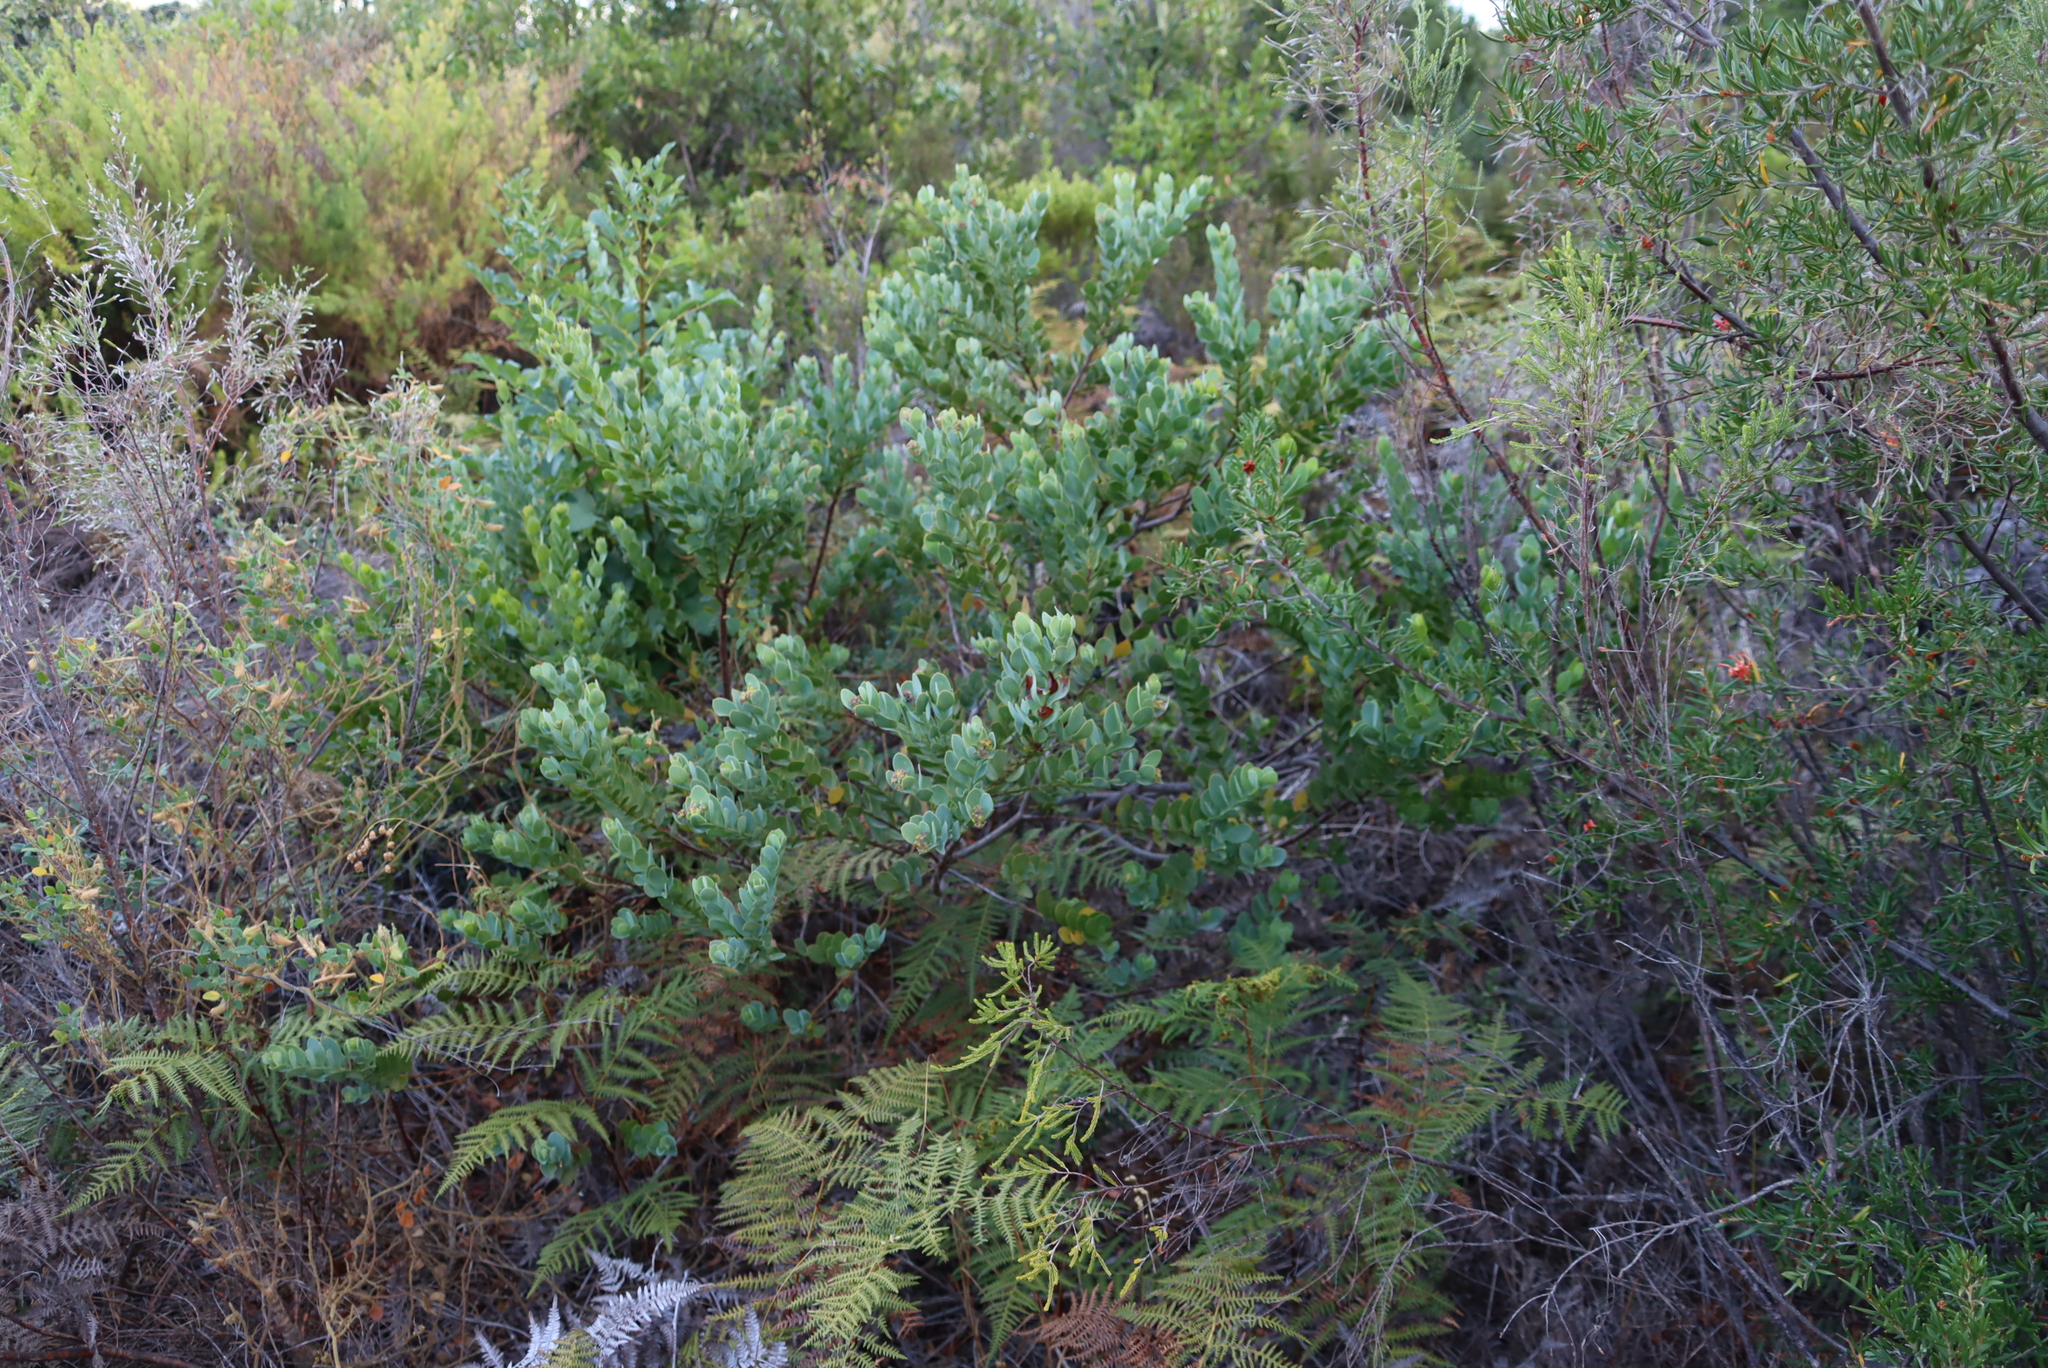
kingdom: Plantae
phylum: Tracheophyta
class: Magnoliopsida
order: Santalales
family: Santalaceae
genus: Osyris
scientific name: Osyris compressa
